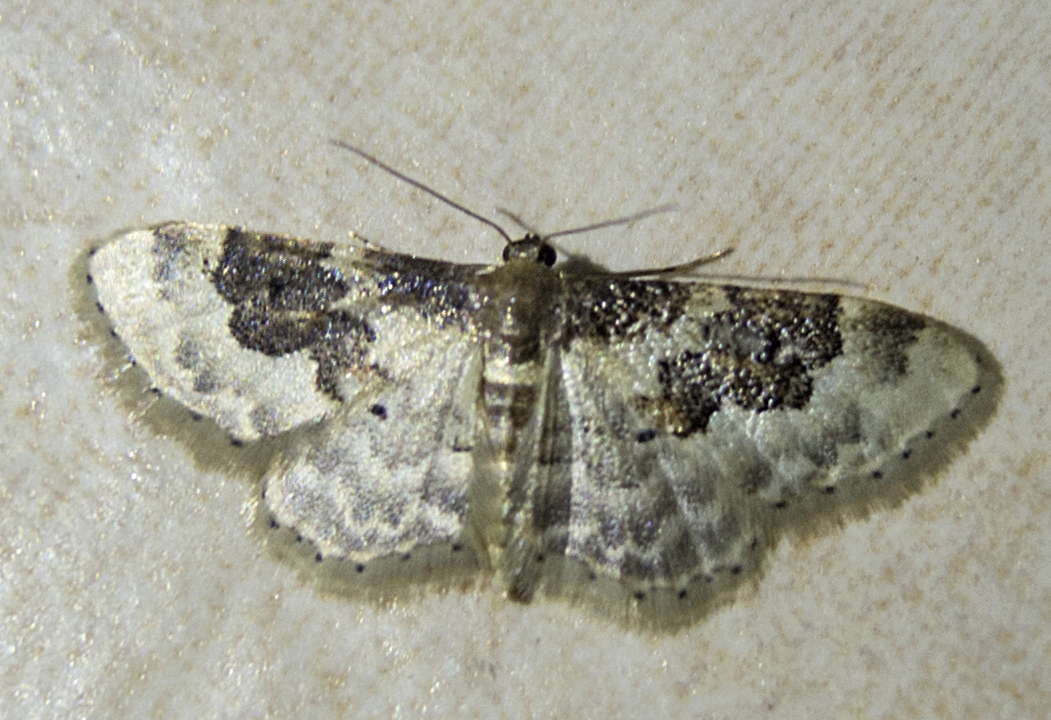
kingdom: Animalia
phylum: Arthropoda
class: Insecta
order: Lepidoptera
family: Geometridae
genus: Idaea
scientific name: Idaea rusticata
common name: Least carpet
